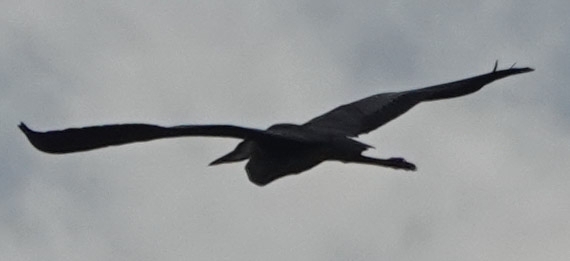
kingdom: Animalia
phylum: Chordata
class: Aves
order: Pelecaniformes
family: Ardeidae
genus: Ardea
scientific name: Ardea cinerea
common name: Grey heron
